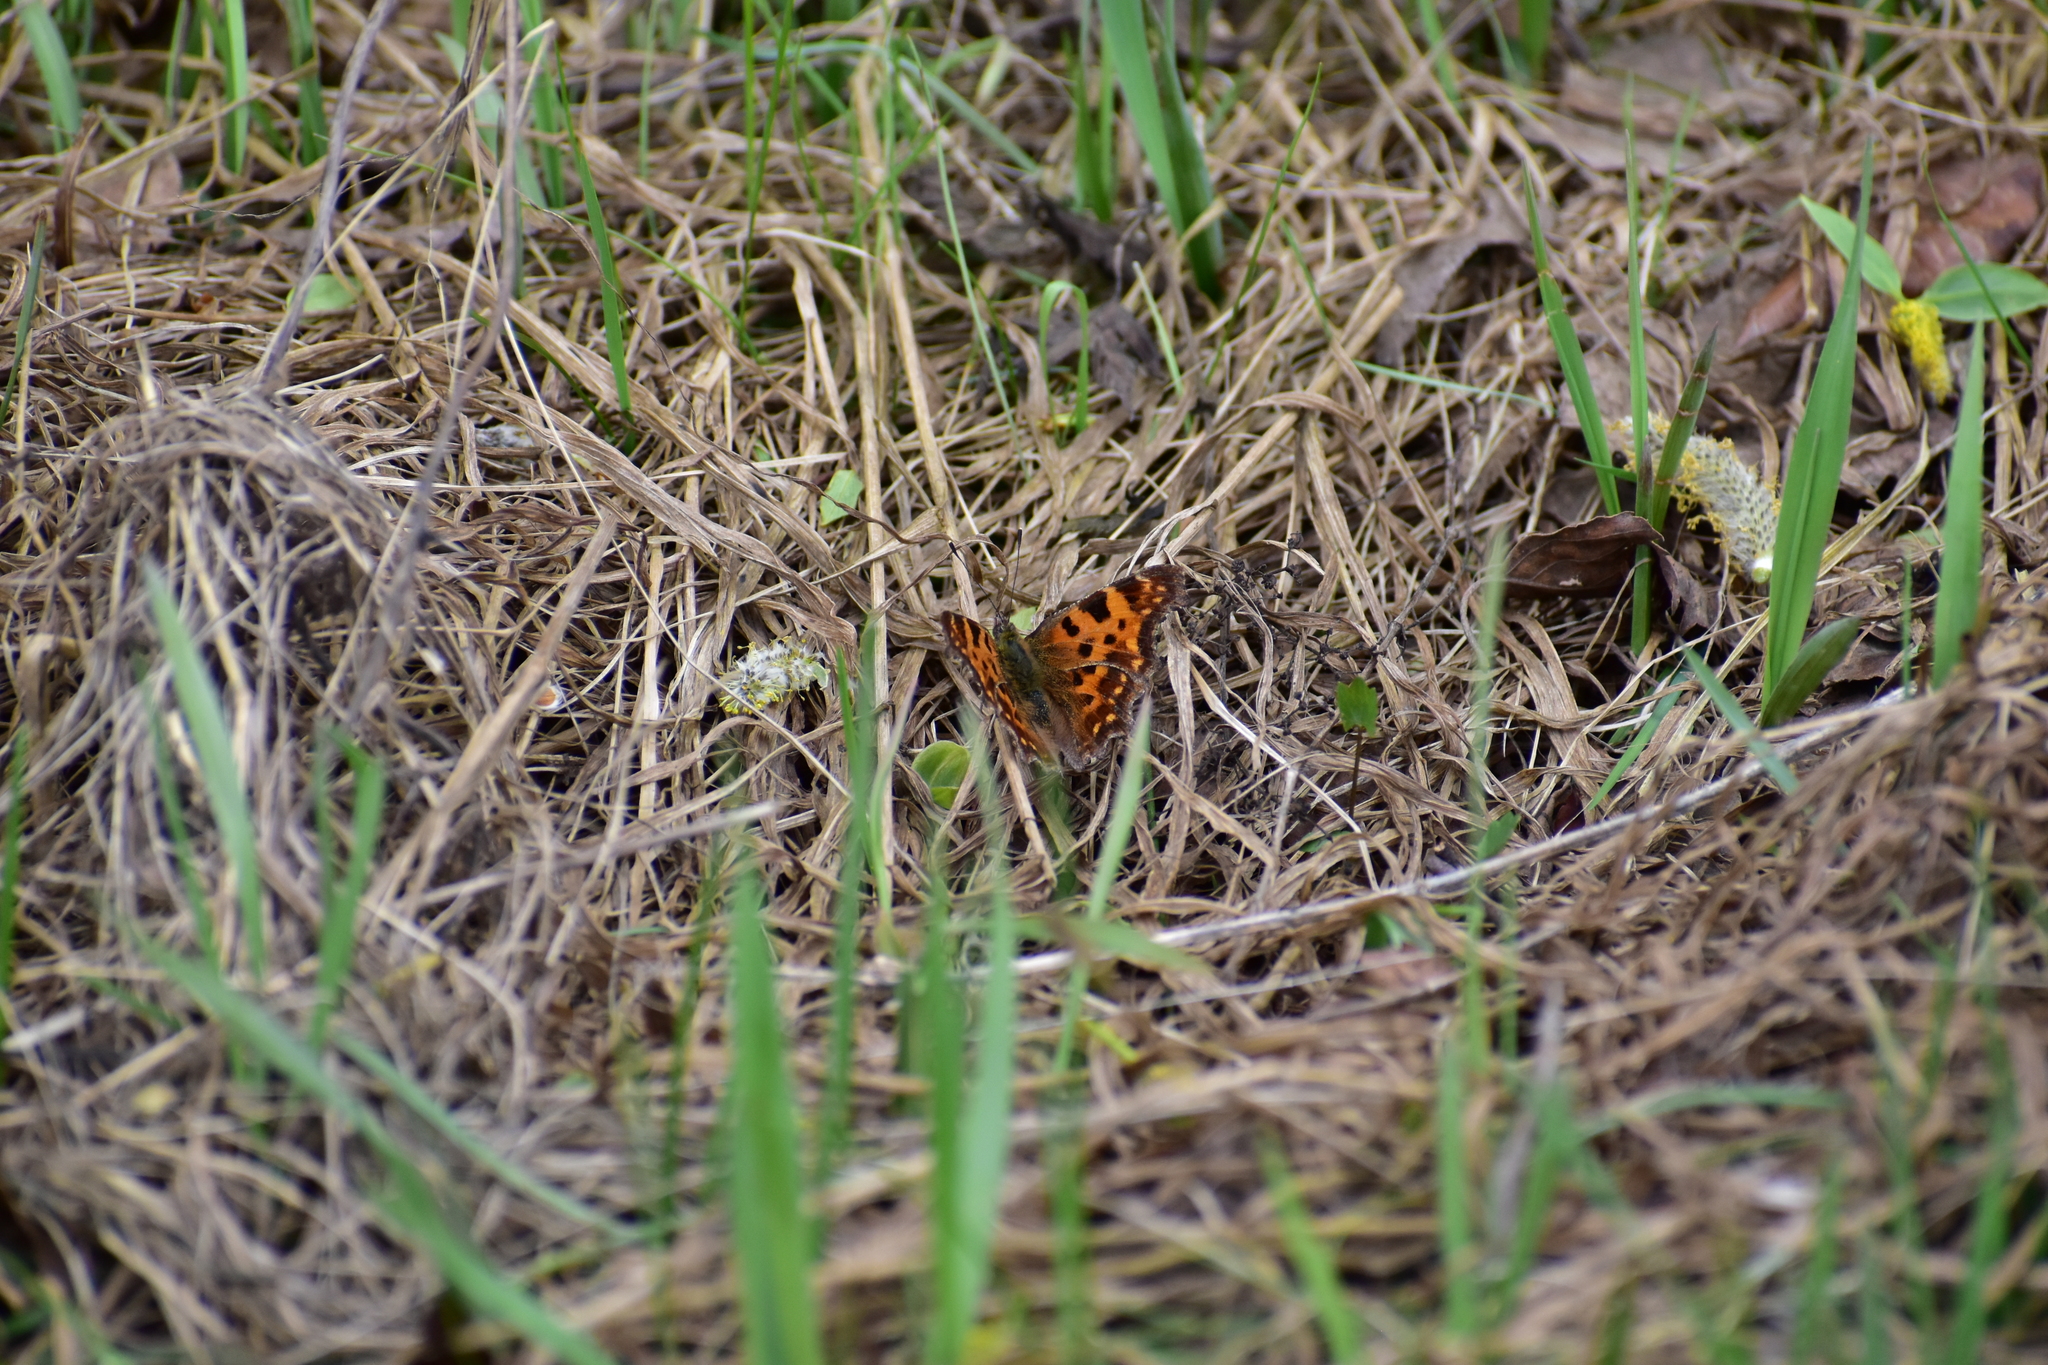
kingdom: Animalia
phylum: Arthropoda
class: Insecta
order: Lepidoptera
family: Nymphalidae
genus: Polygonia
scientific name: Polygonia c-album
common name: Comma
